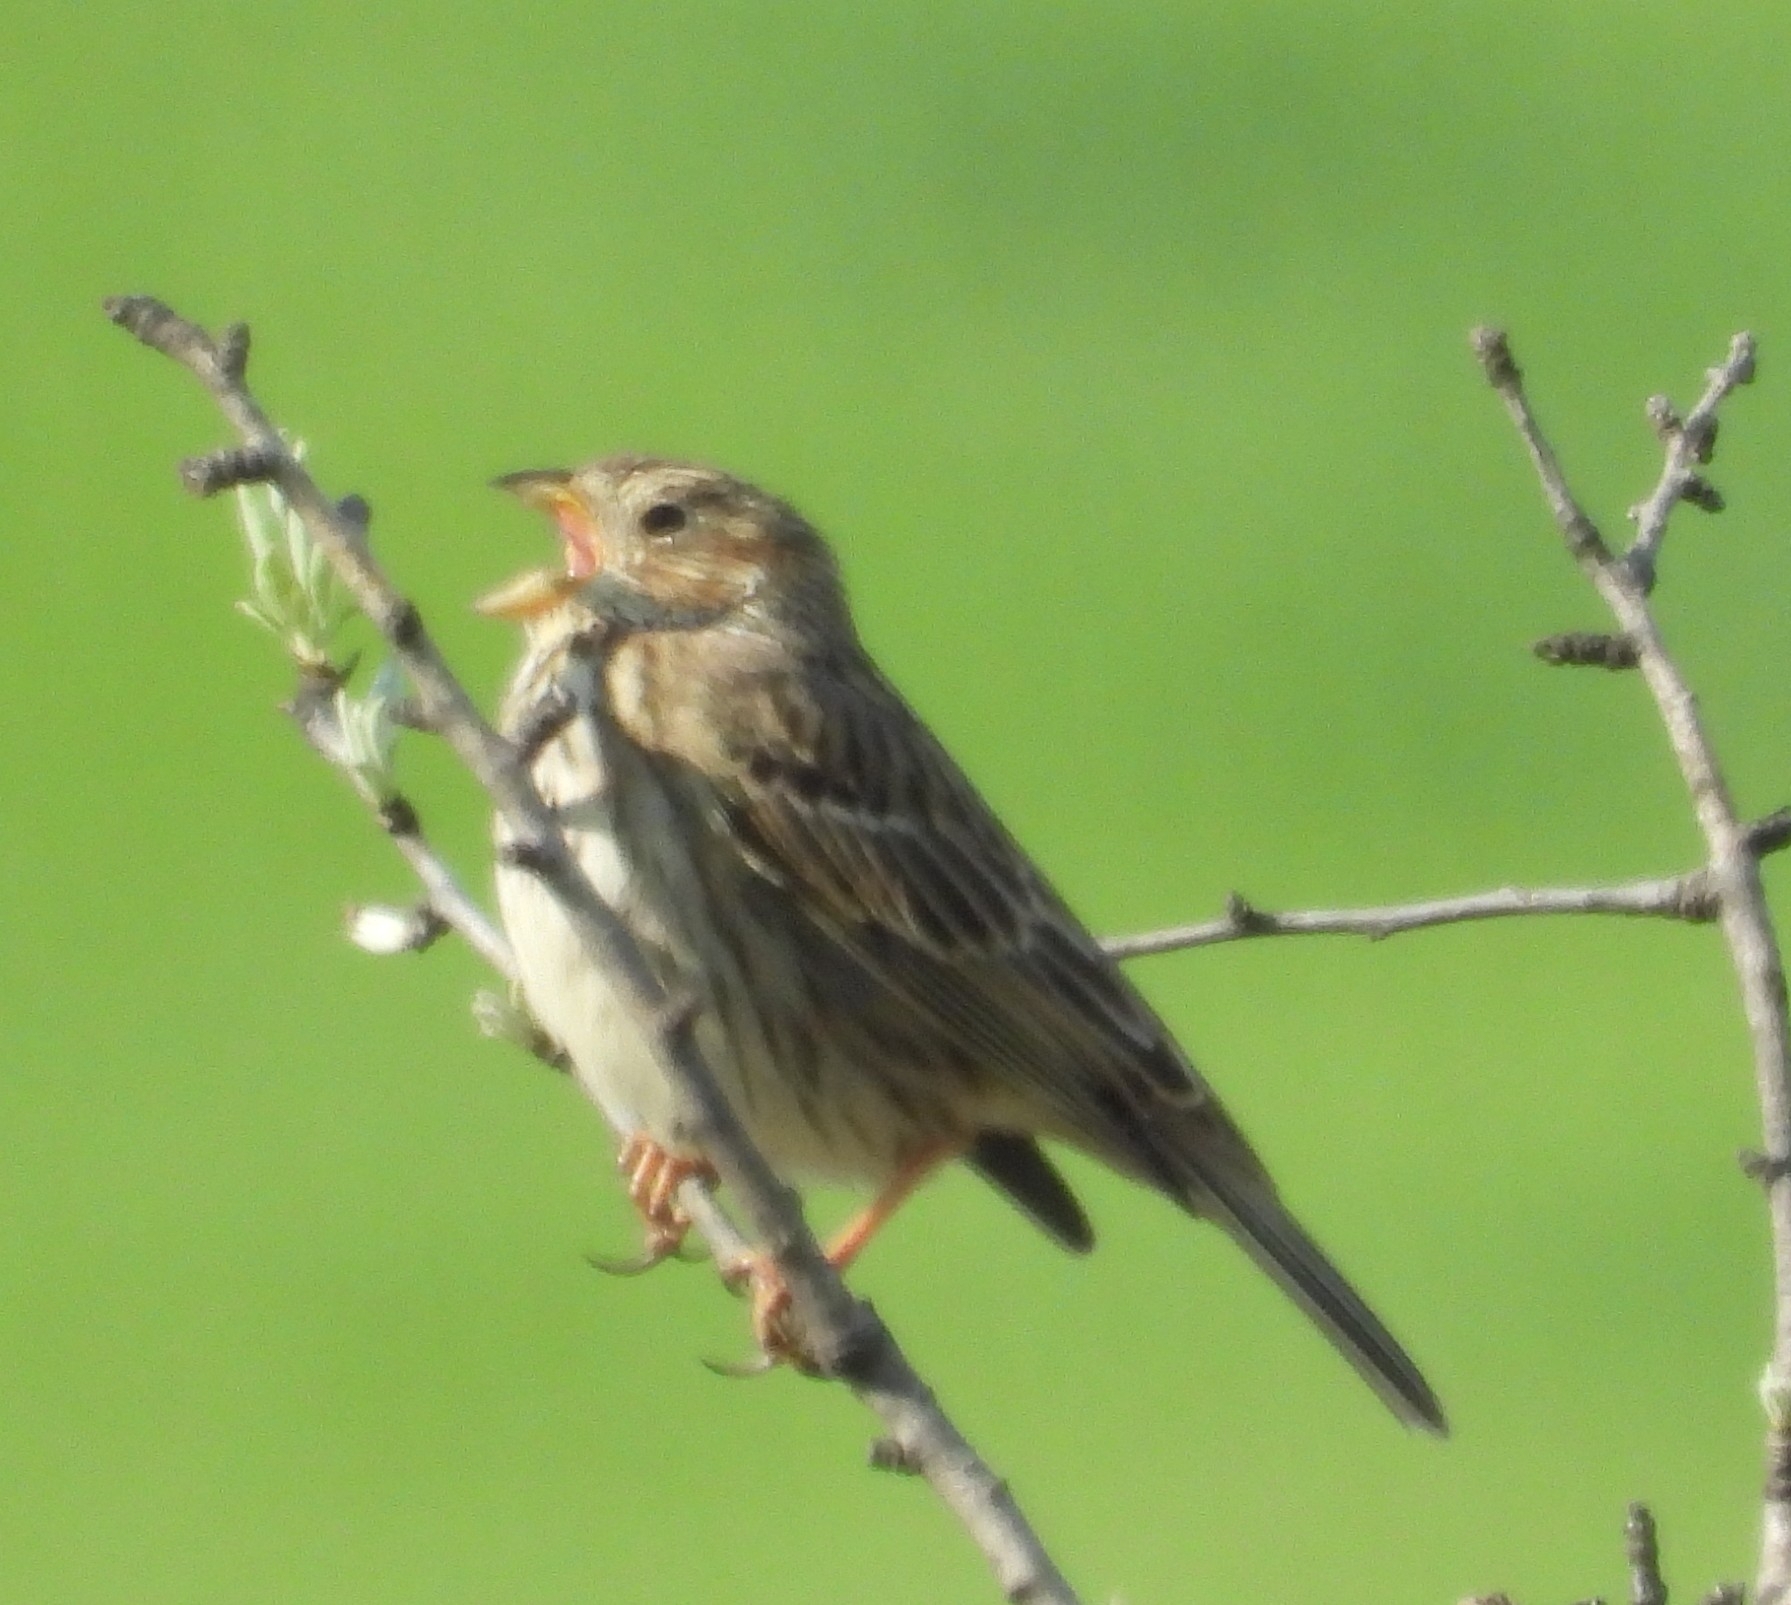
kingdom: Animalia
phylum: Chordata
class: Aves
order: Passeriformes
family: Emberizidae
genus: Emberiza
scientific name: Emberiza calandra
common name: Corn bunting
